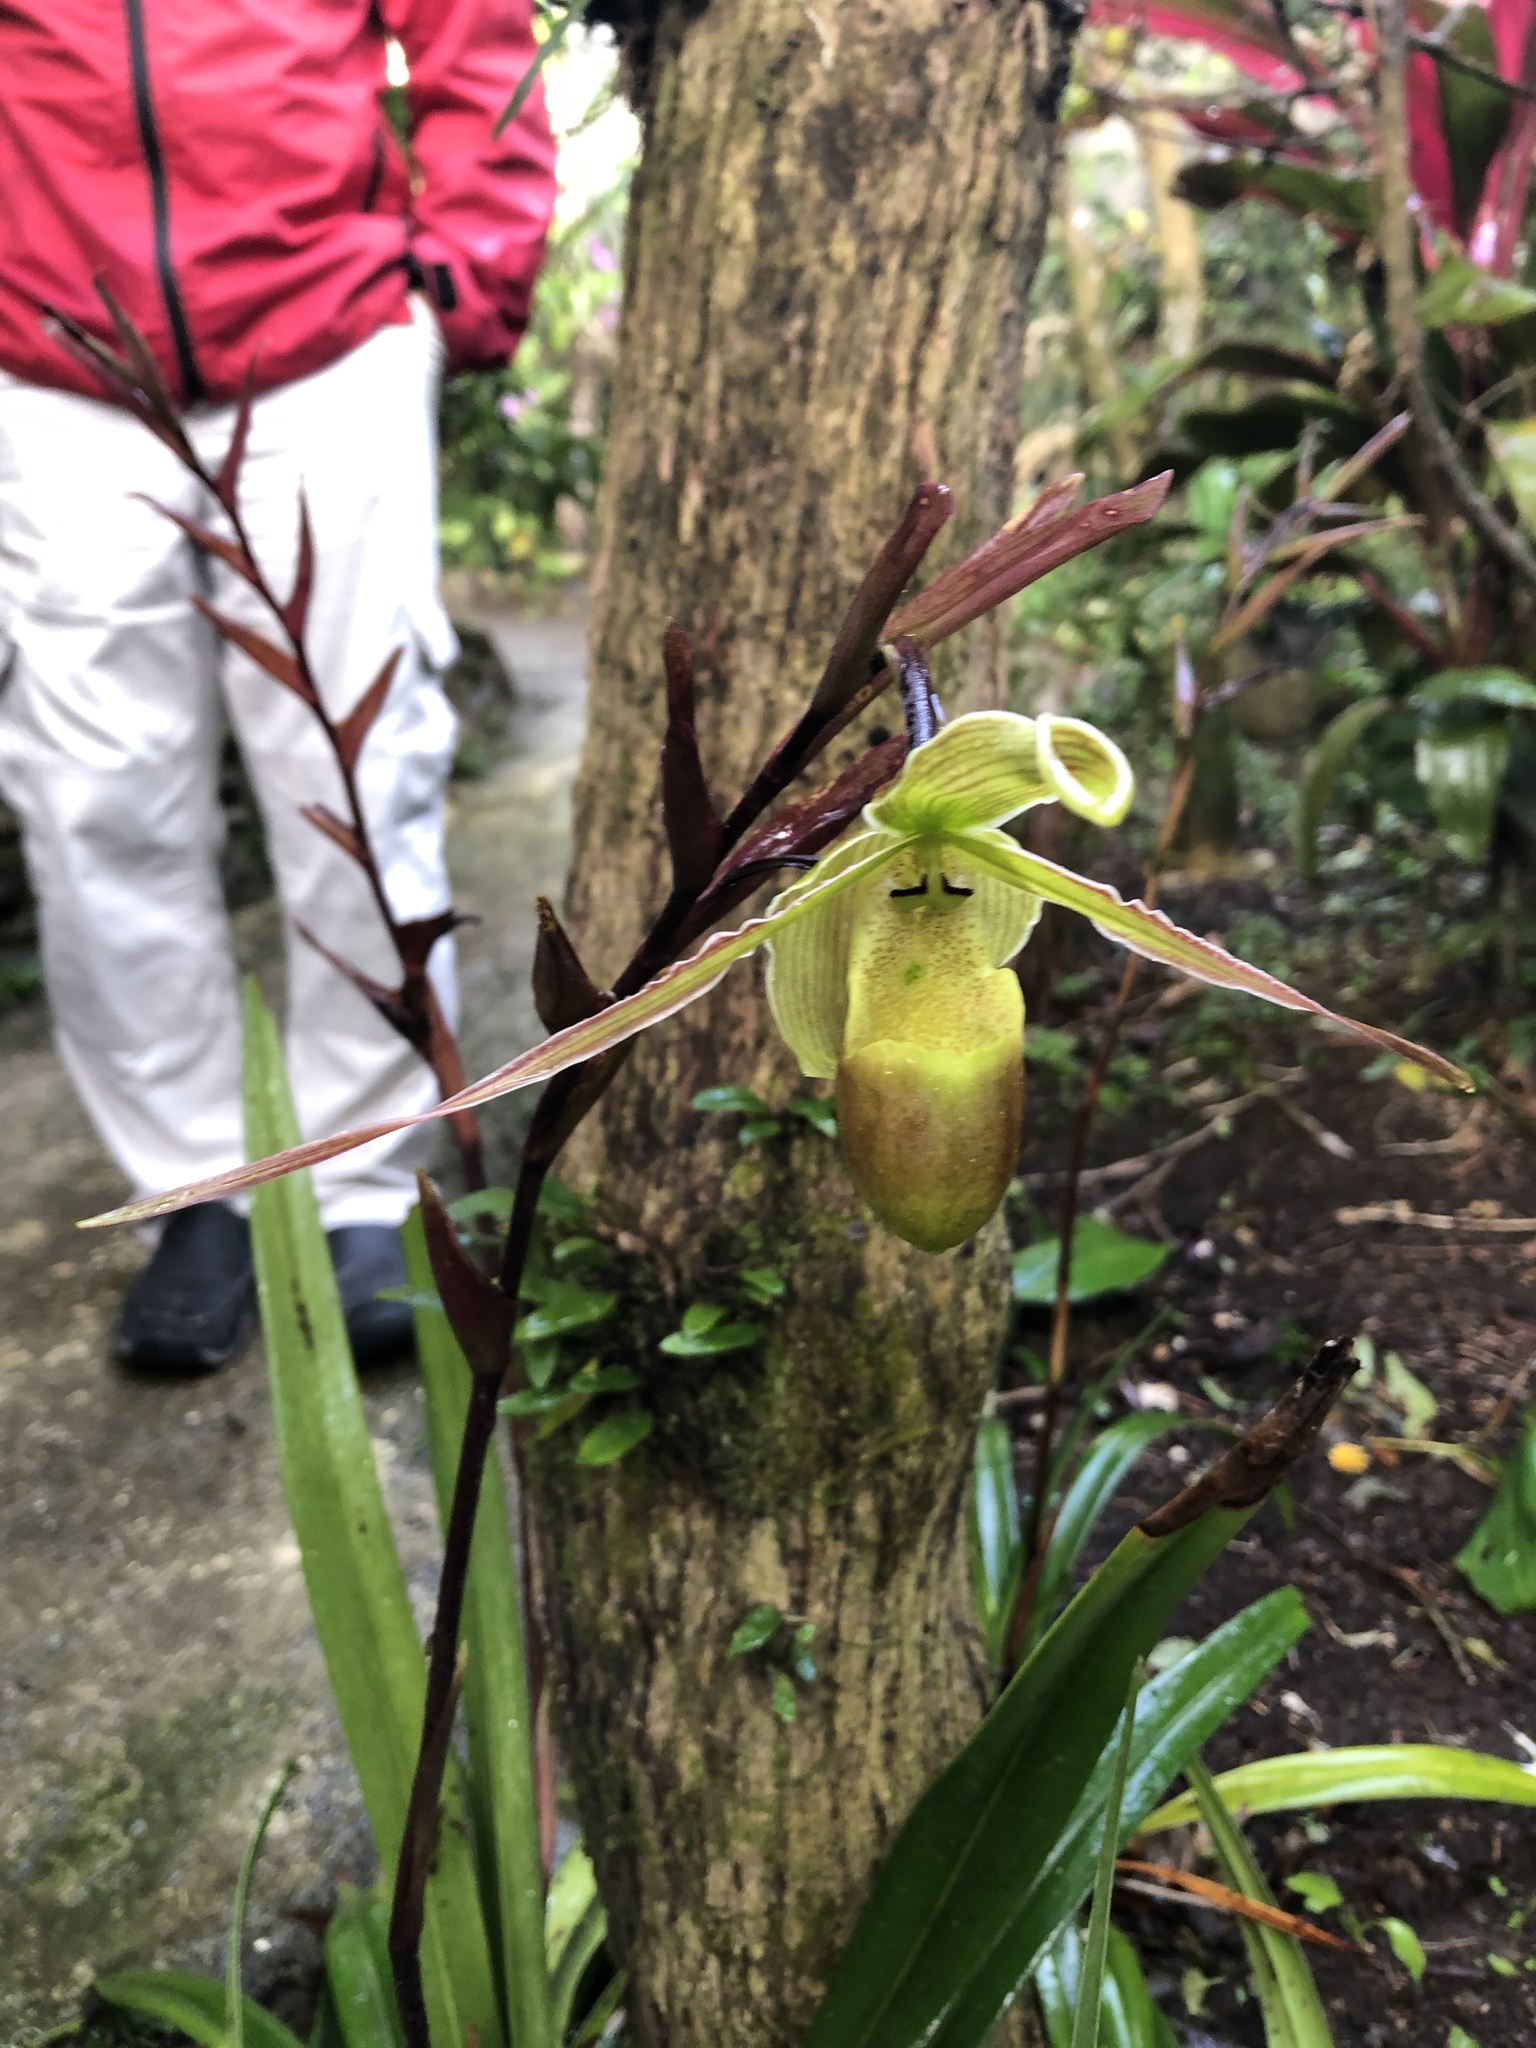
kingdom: Plantae
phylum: Tracheophyta
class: Liliopsida
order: Asparagales
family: Orchidaceae
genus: Phragmipedium
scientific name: Phragmipedium longifolium
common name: Long-leaf phragmipedium
